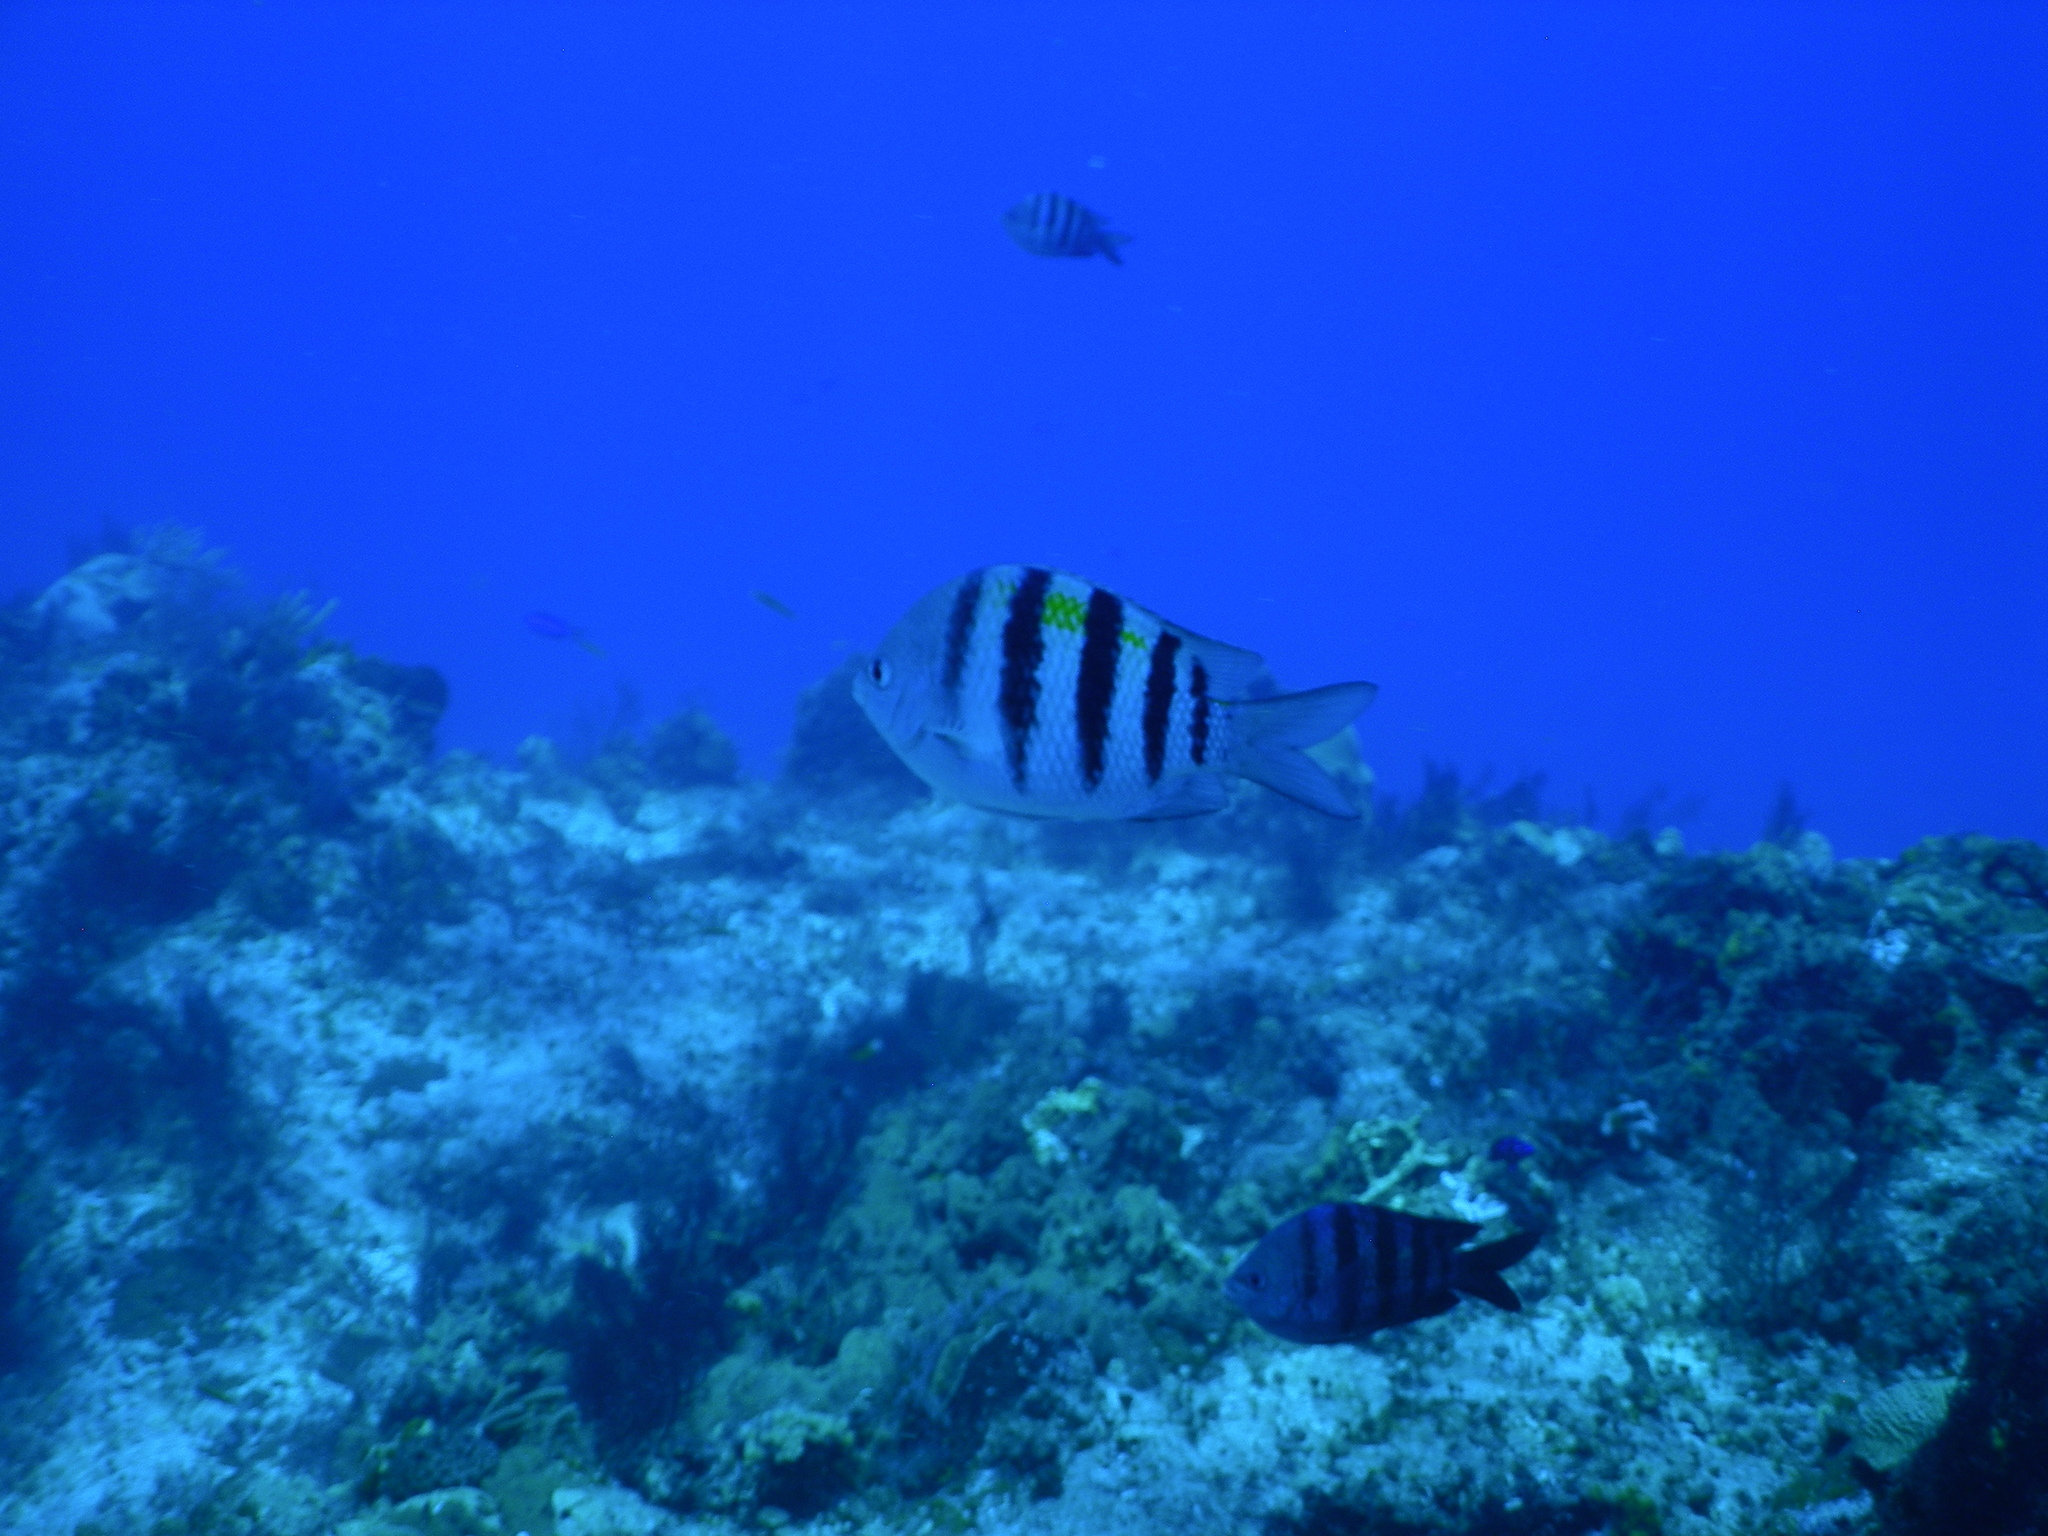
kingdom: Animalia
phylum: Chordata
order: Perciformes
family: Pomacentridae
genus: Abudefduf
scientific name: Abudefduf saxatilis
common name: Sergeant major
